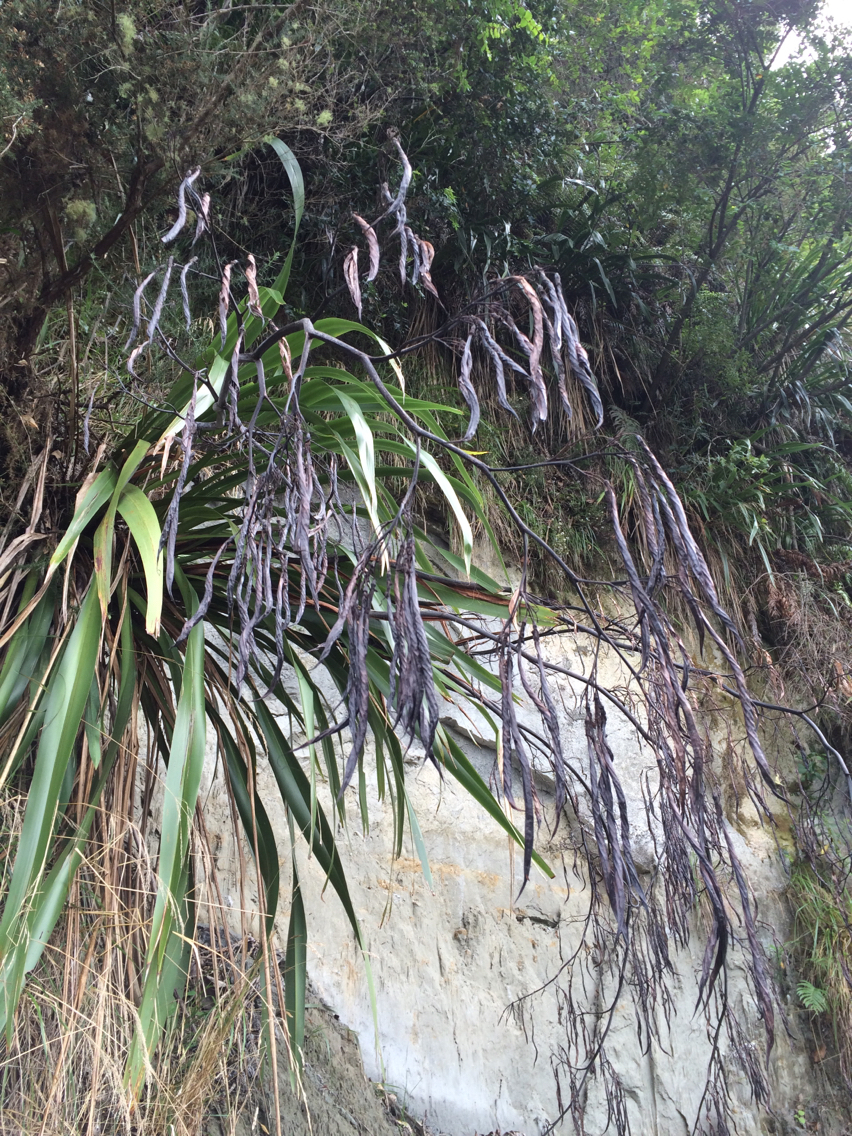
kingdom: Plantae
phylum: Tracheophyta
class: Liliopsida
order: Asparagales
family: Asphodelaceae
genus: Phormium
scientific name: Phormium colensoi
